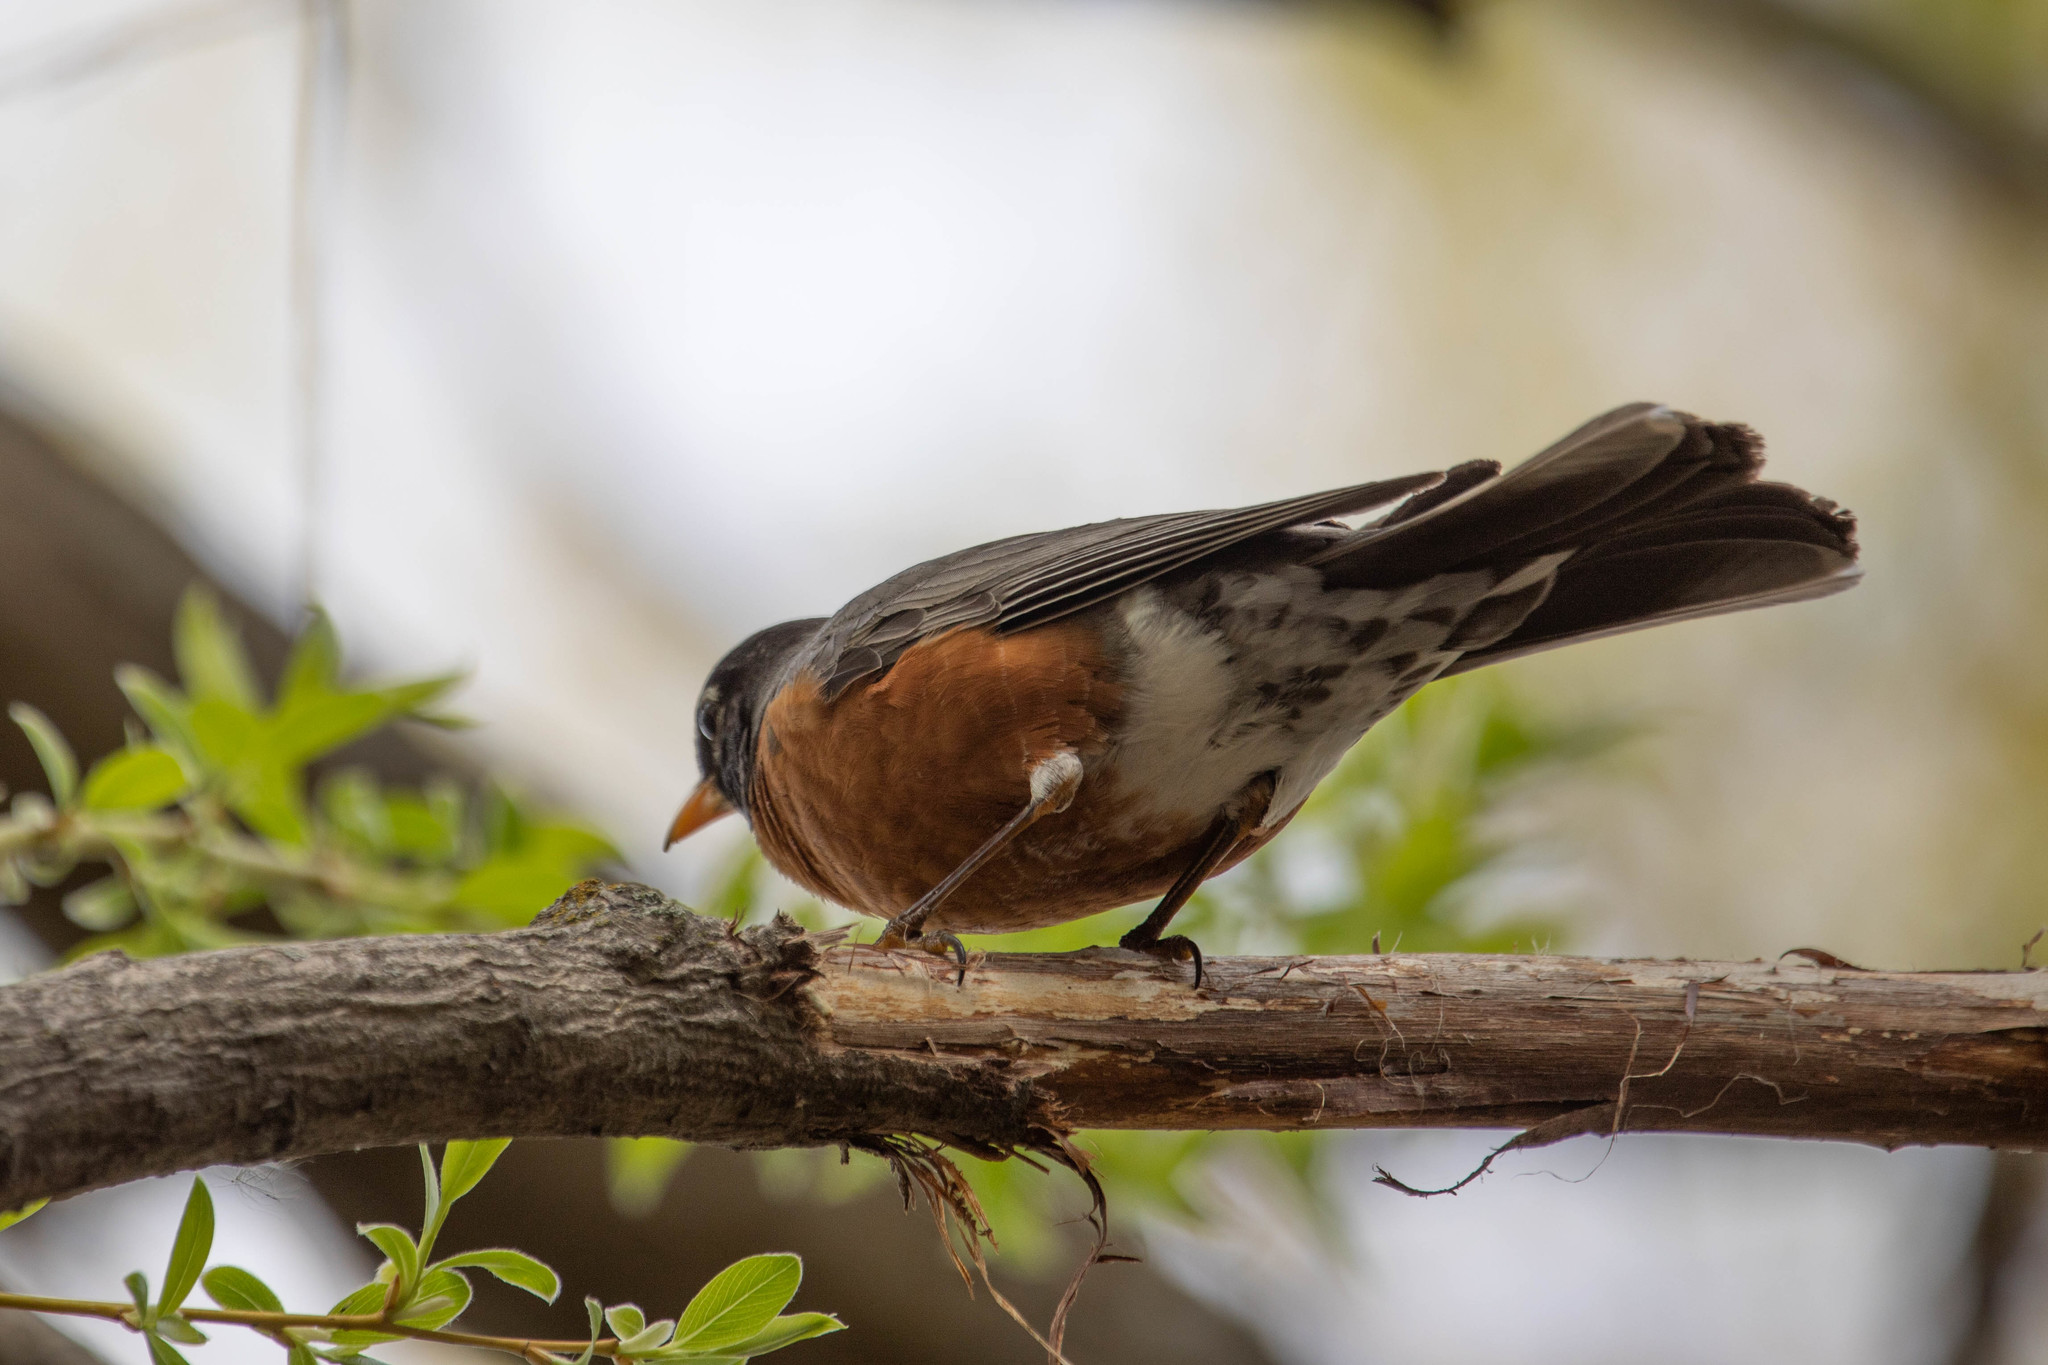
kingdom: Animalia
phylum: Chordata
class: Aves
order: Passeriformes
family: Turdidae
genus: Turdus
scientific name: Turdus migratorius
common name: American robin
